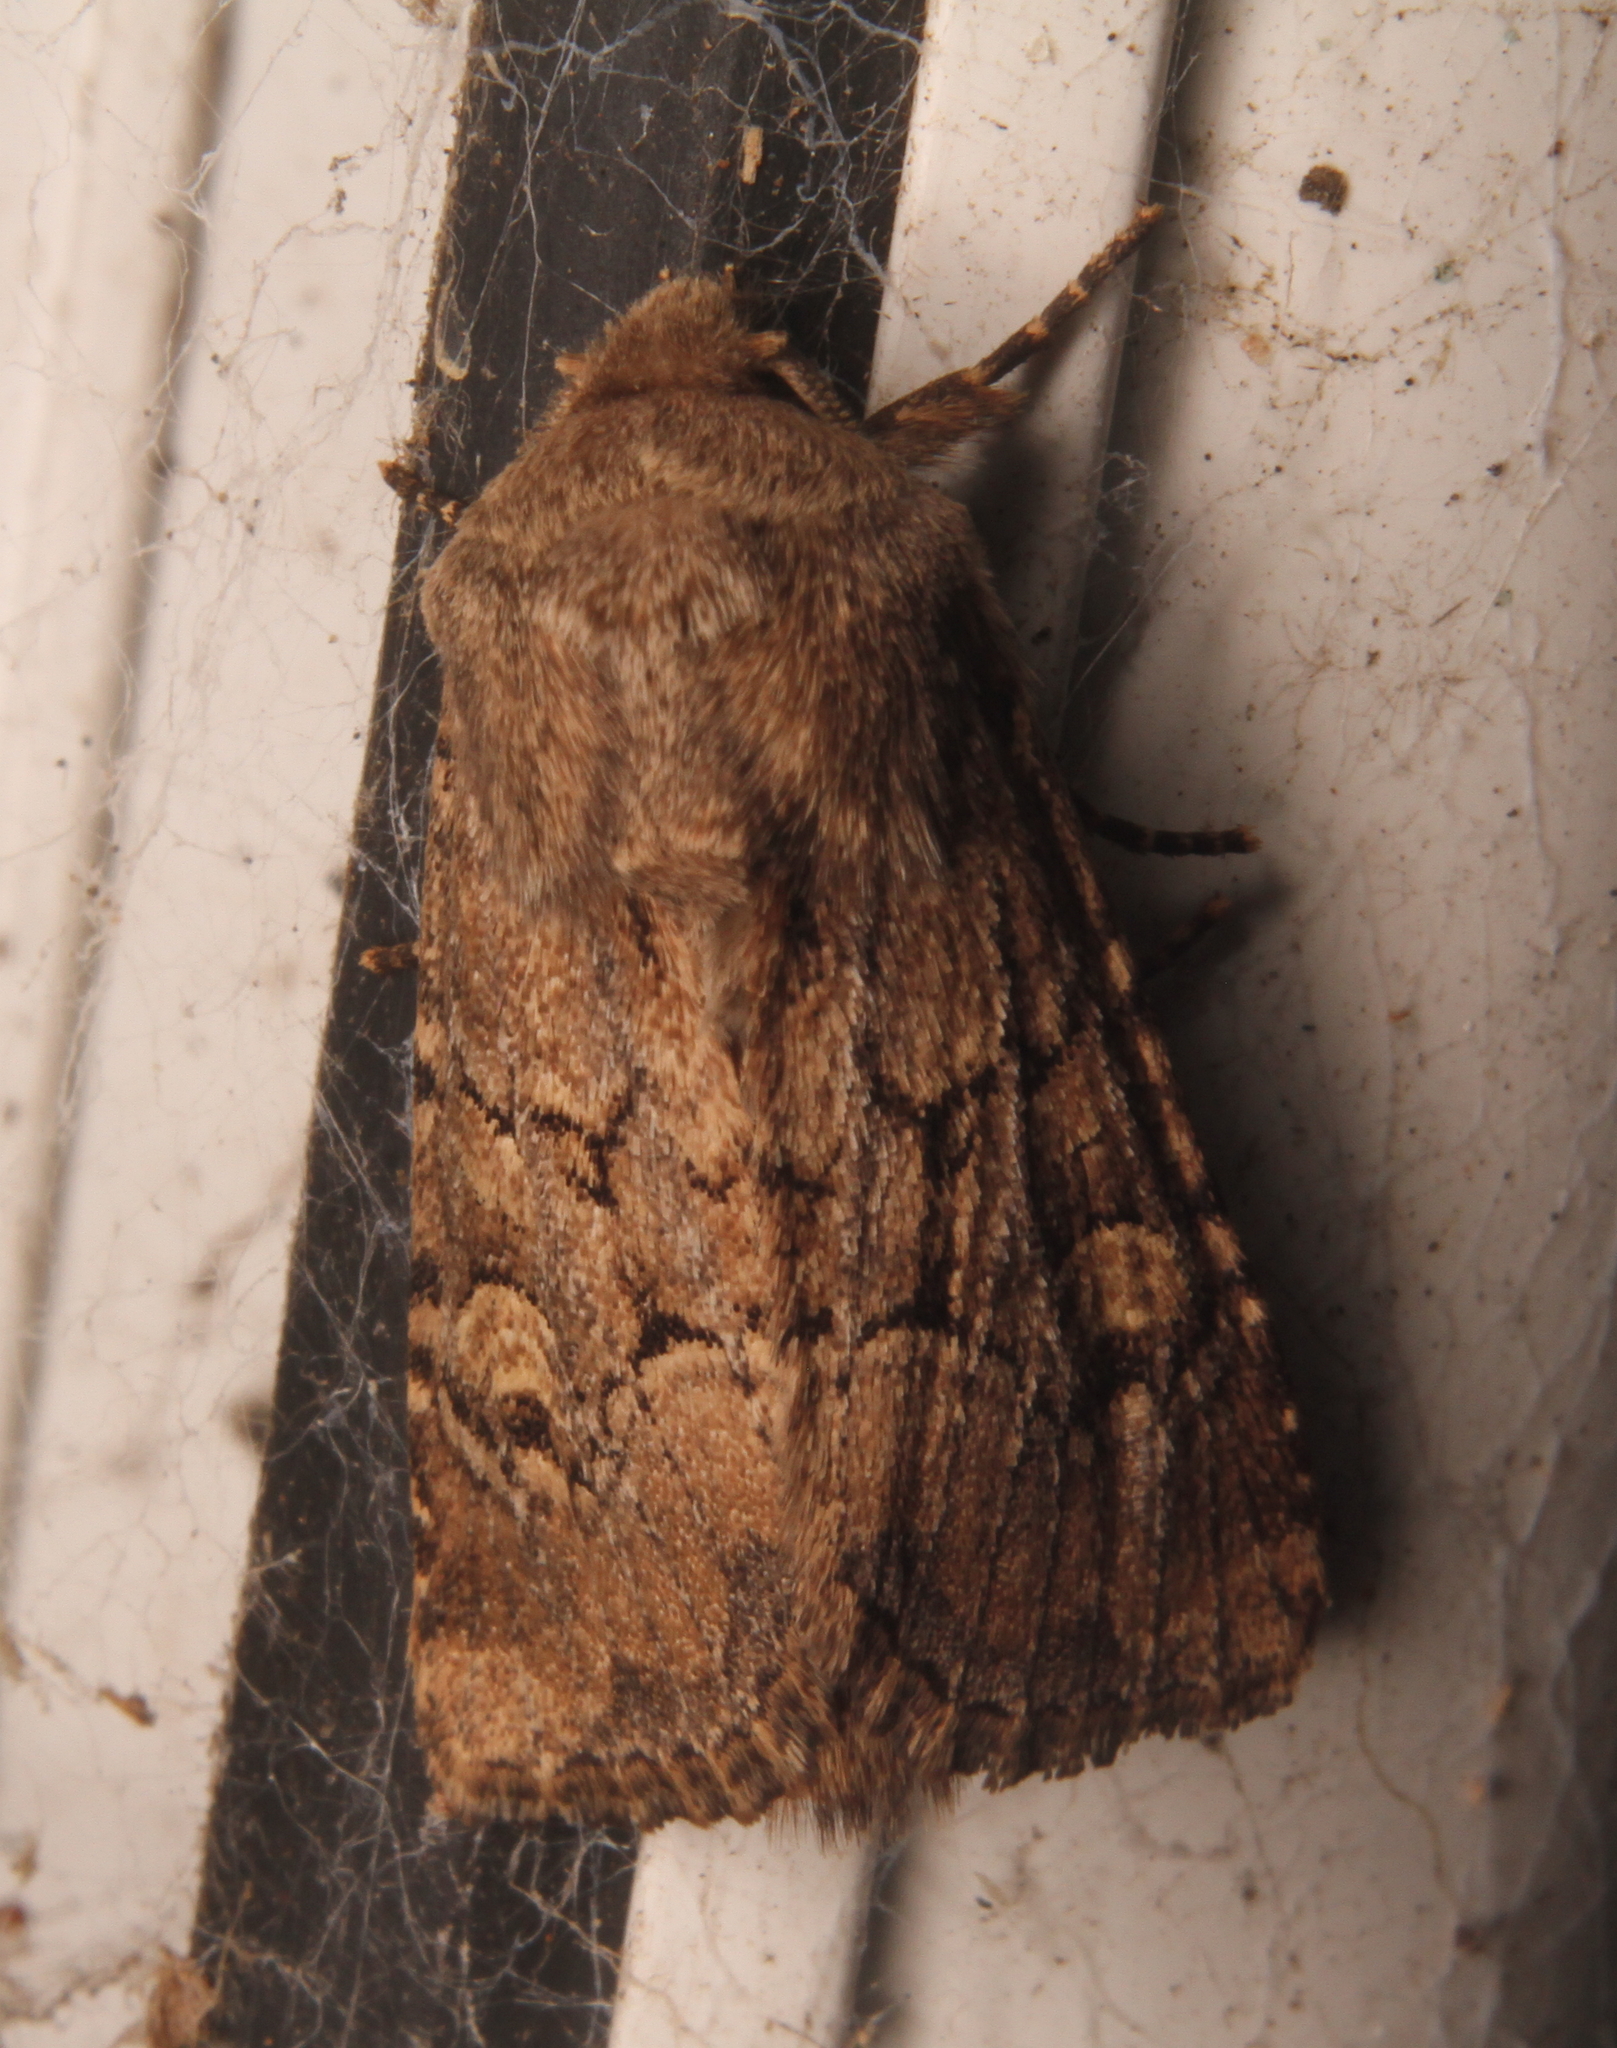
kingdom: Animalia
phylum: Arthropoda
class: Insecta
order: Lepidoptera
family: Noctuidae
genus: Luperina
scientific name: Luperina testacea
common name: Flounced rustic
